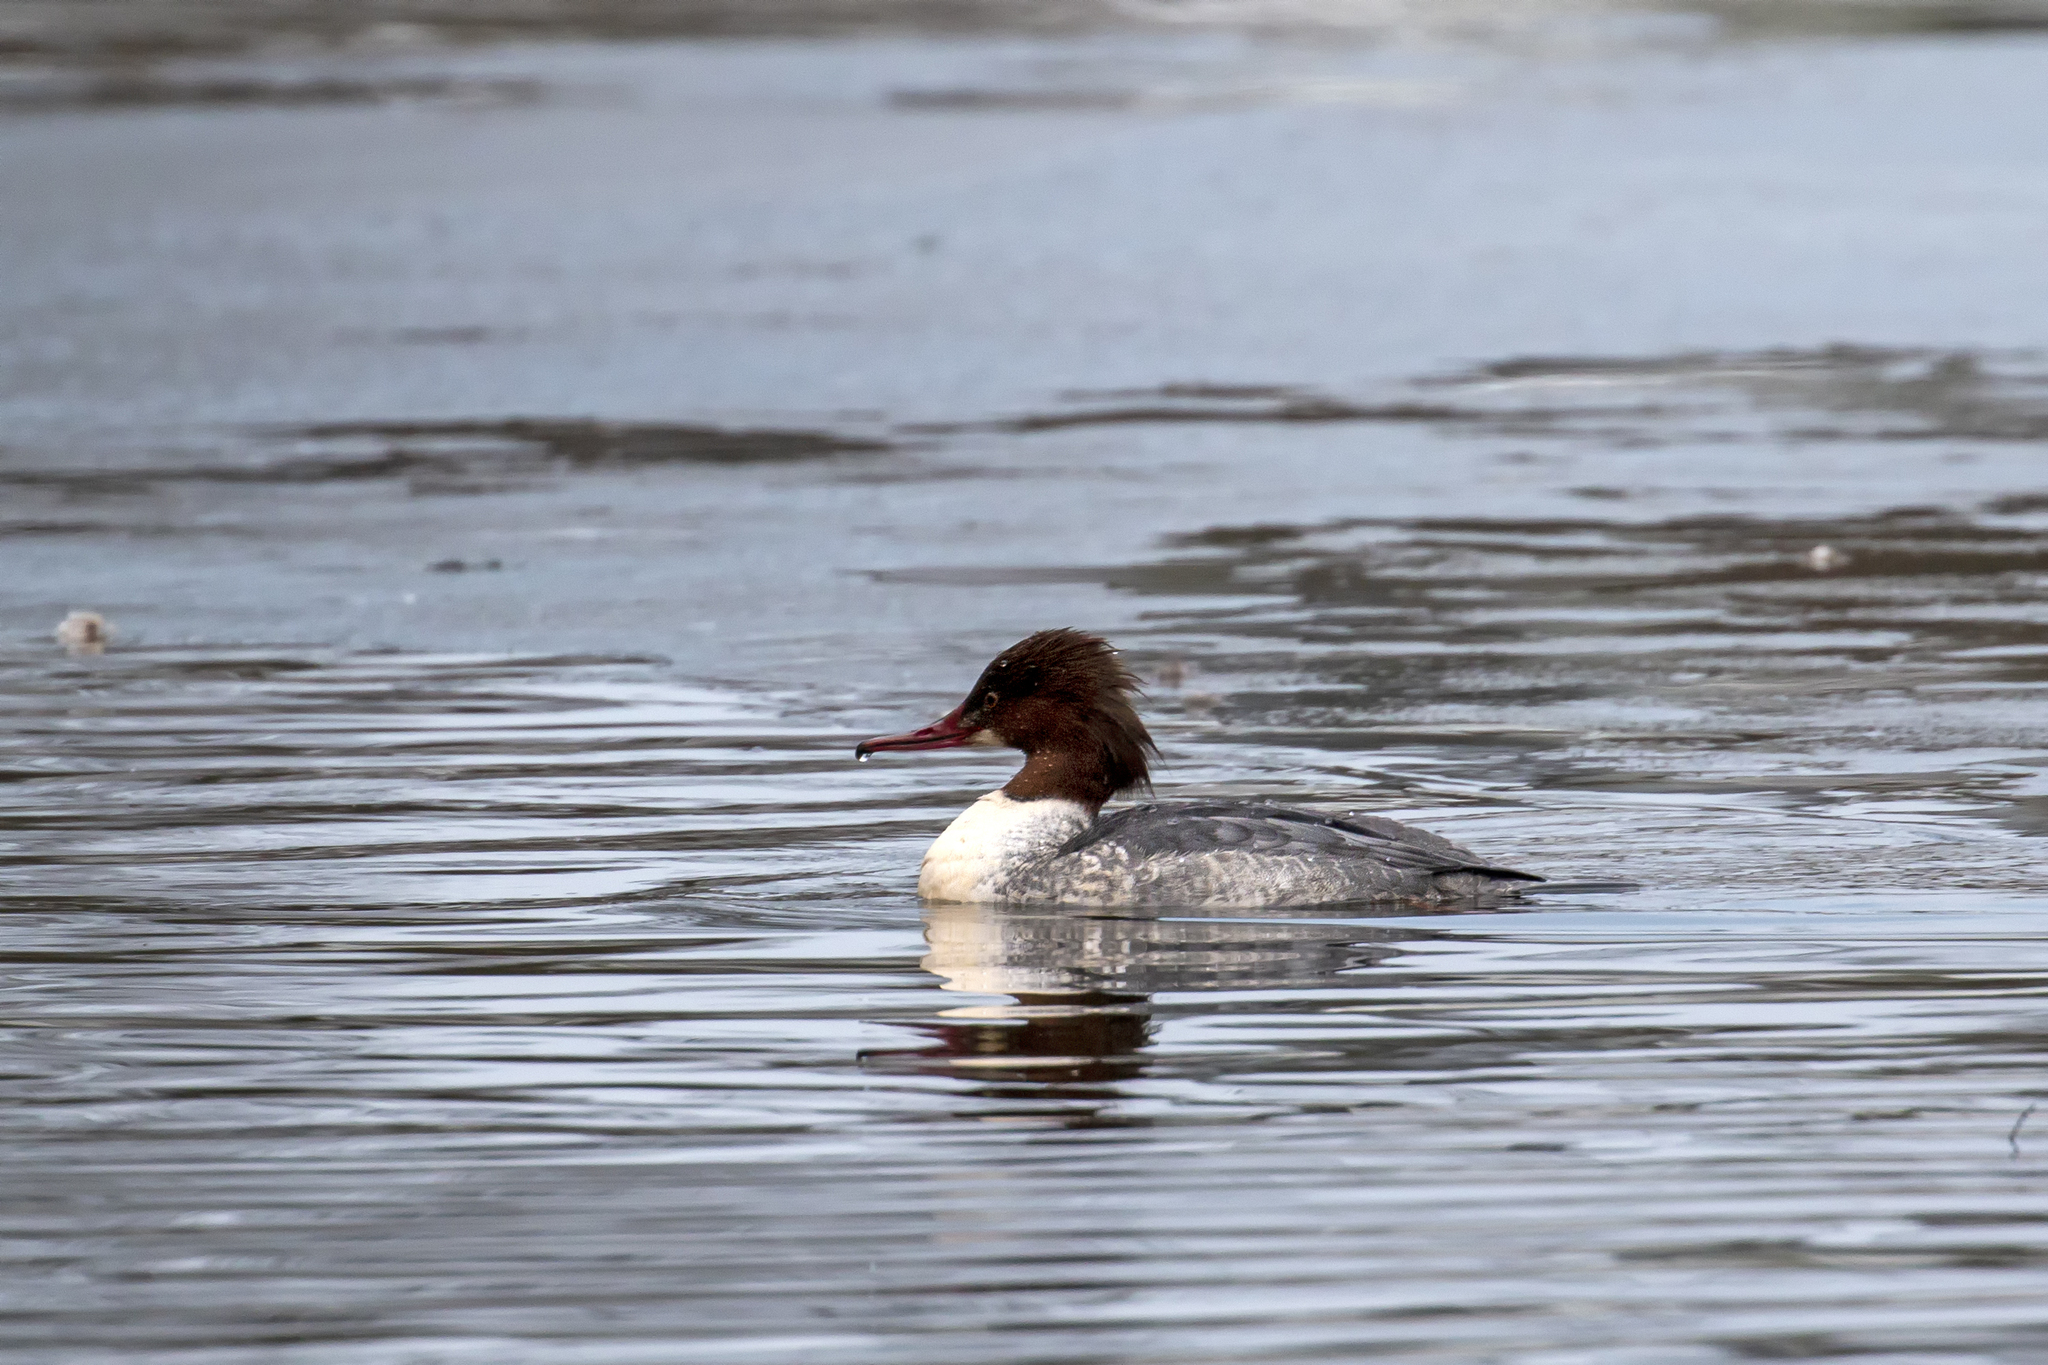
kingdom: Animalia
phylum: Chordata
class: Aves
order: Anseriformes
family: Anatidae
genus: Mergus
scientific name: Mergus merganser
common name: Common merganser
